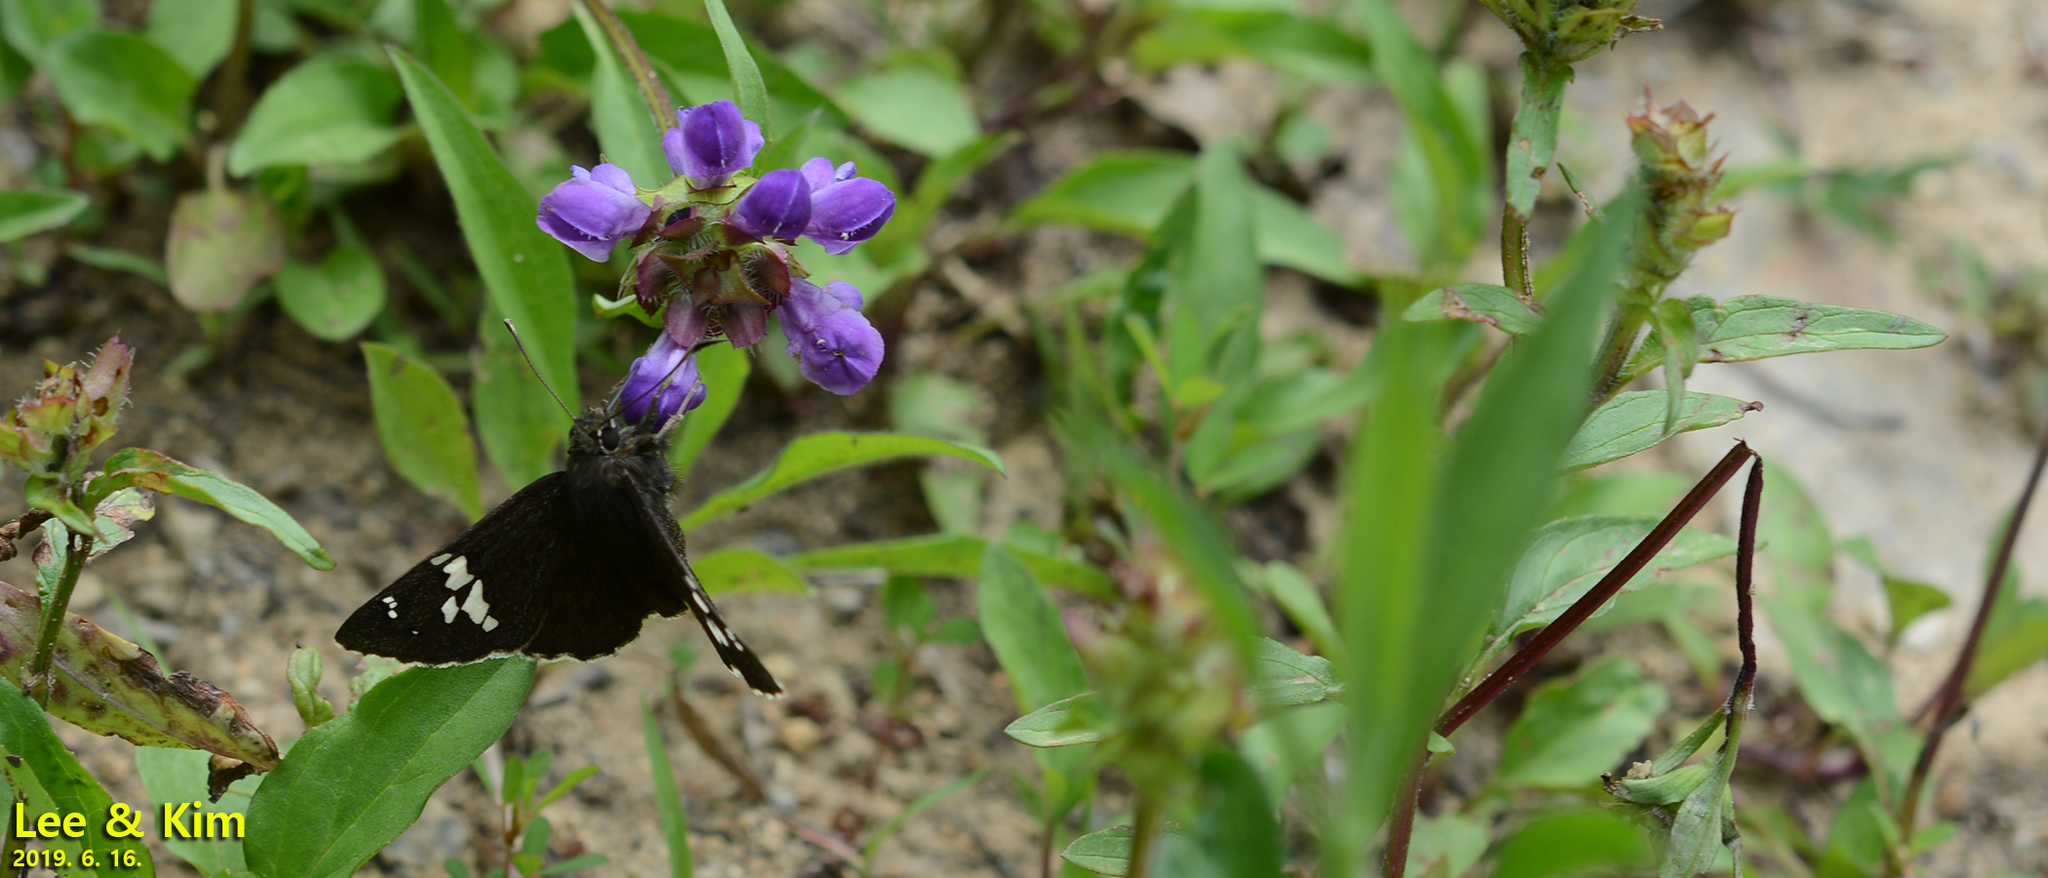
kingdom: Animalia
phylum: Arthropoda
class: Insecta
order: Lepidoptera
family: Hesperiidae
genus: Lobocla
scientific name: Lobocla bifasciatus
